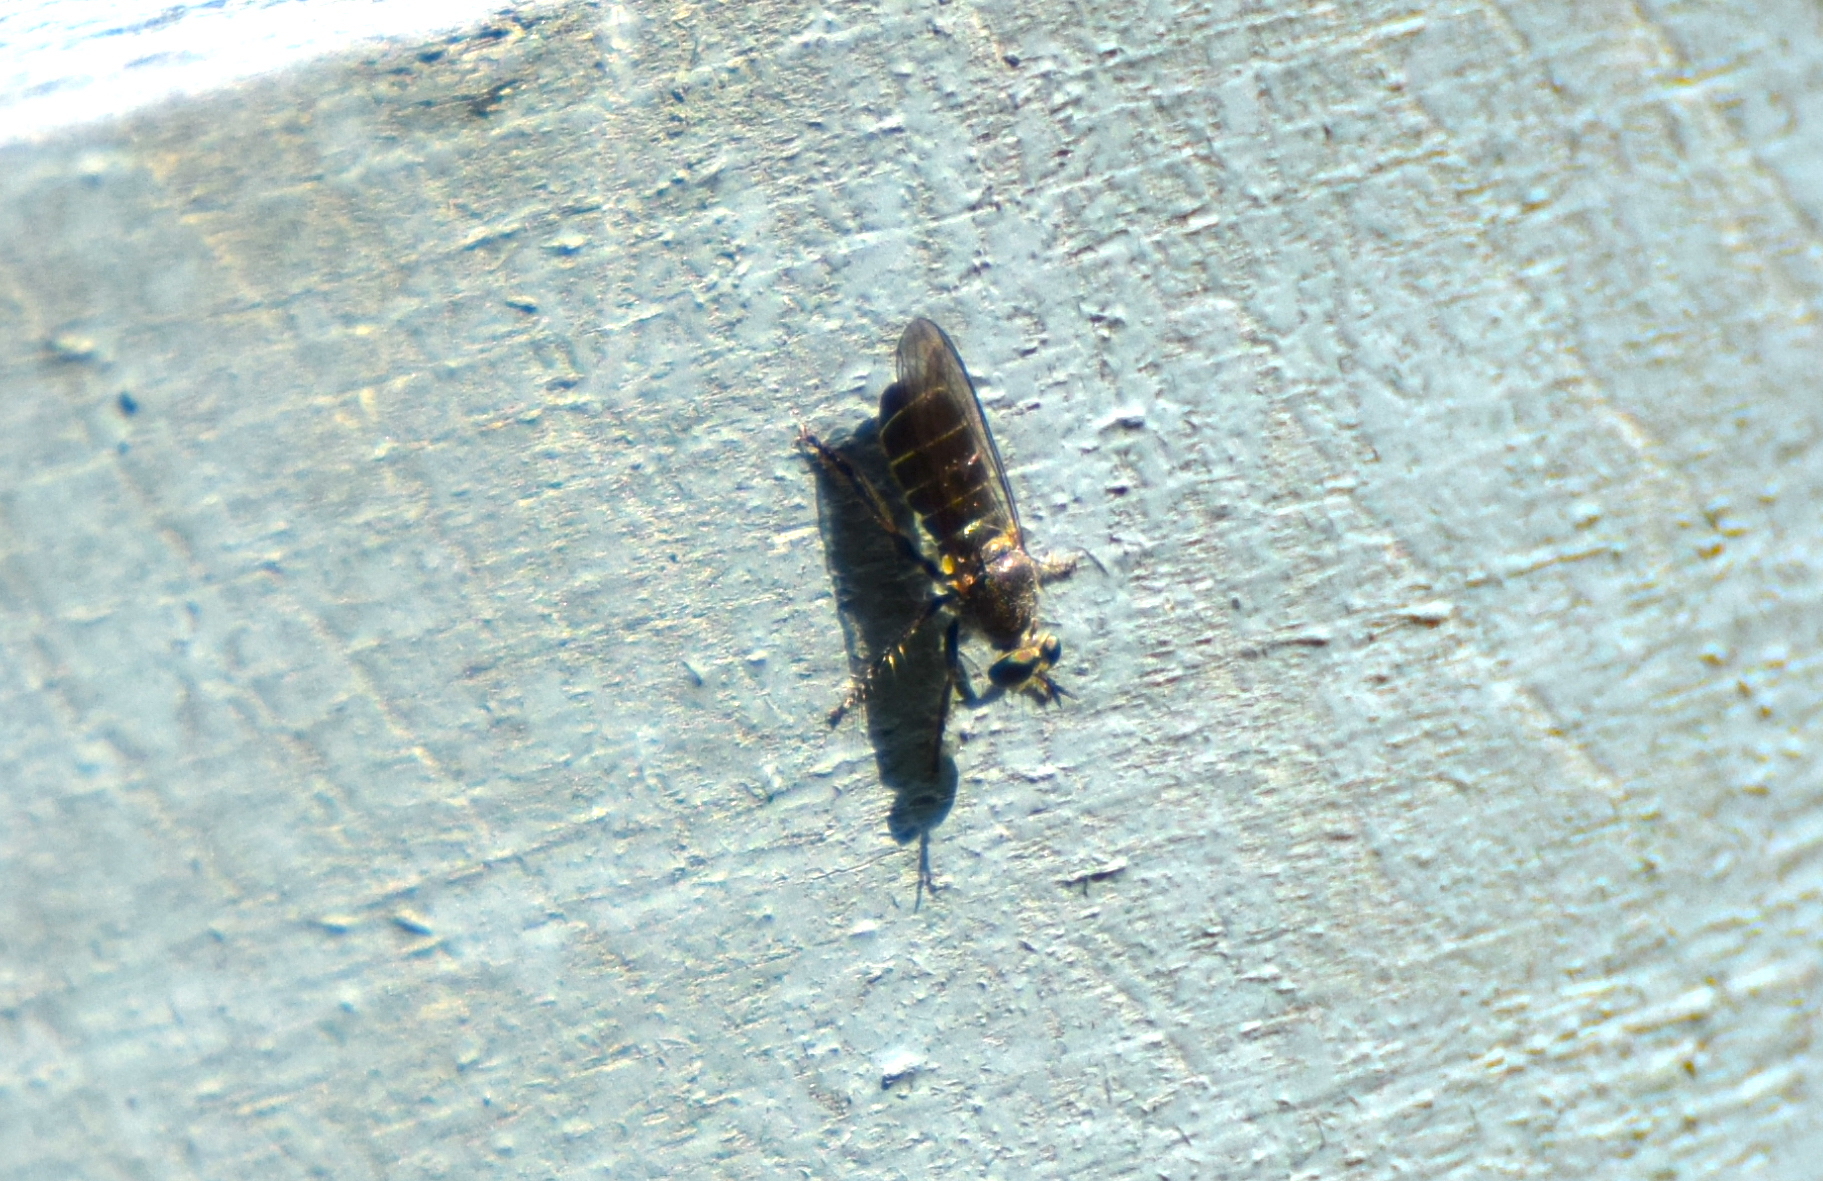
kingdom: Animalia
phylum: Arthropoda
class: Insecta
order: Diptera
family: Asilidae
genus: Atomosia
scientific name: Atomosia puella
